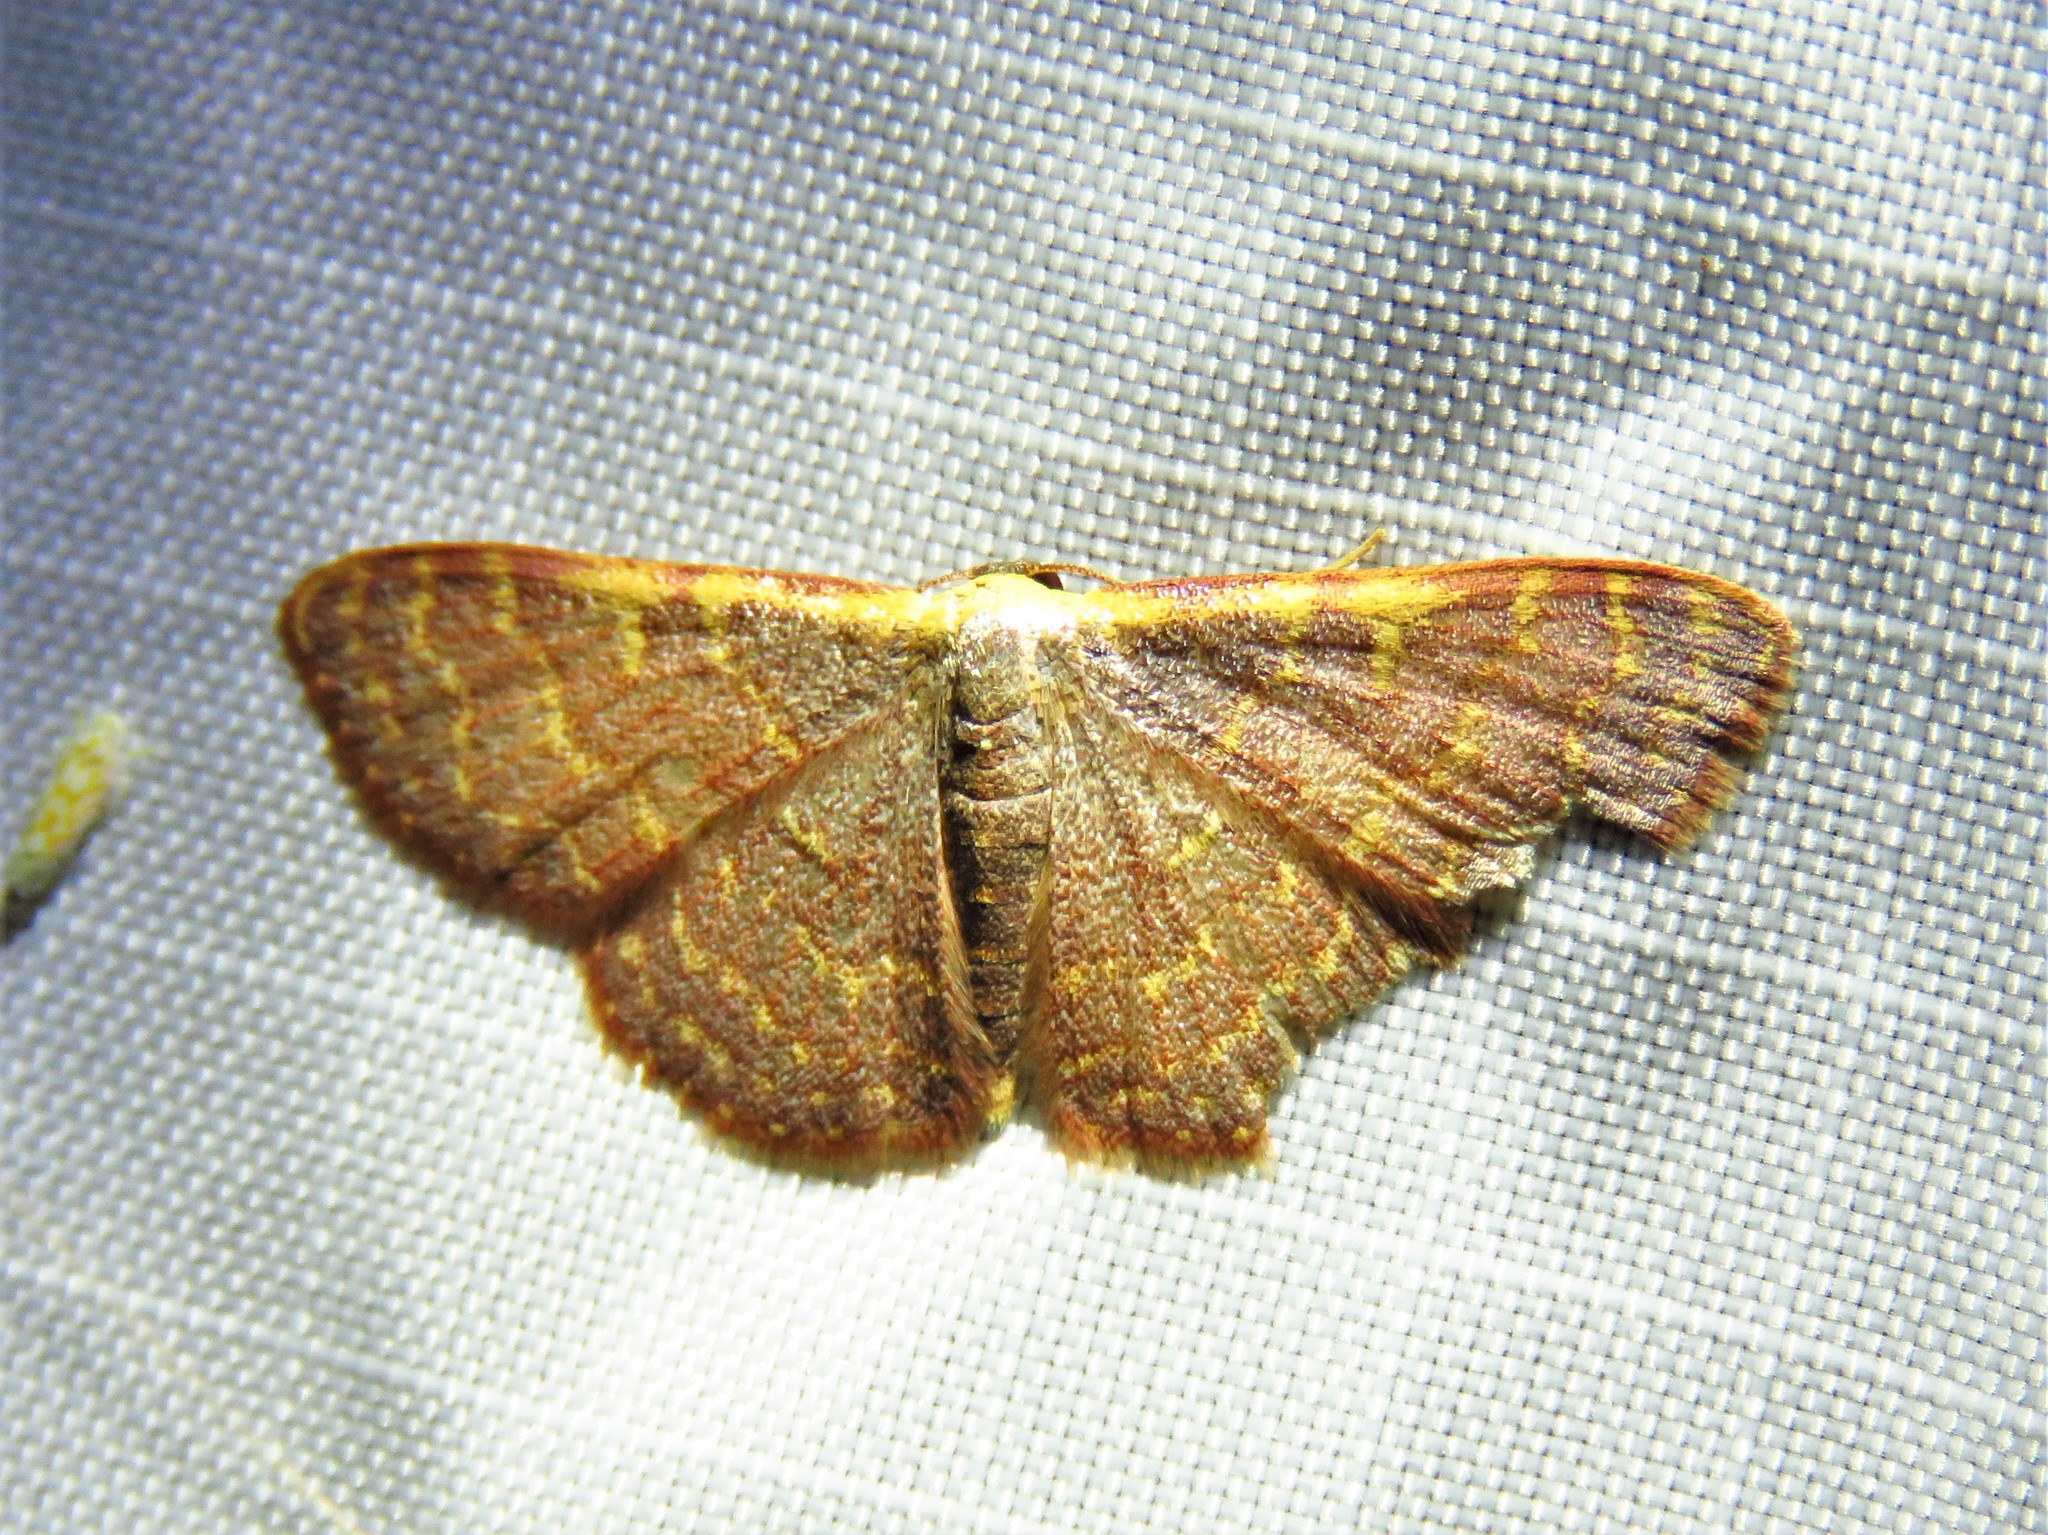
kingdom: Animalia
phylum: Arthropoda
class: Insecta
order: Lepidoptera
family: Geometridae
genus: Leptostales
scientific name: Leptostales pannaria
